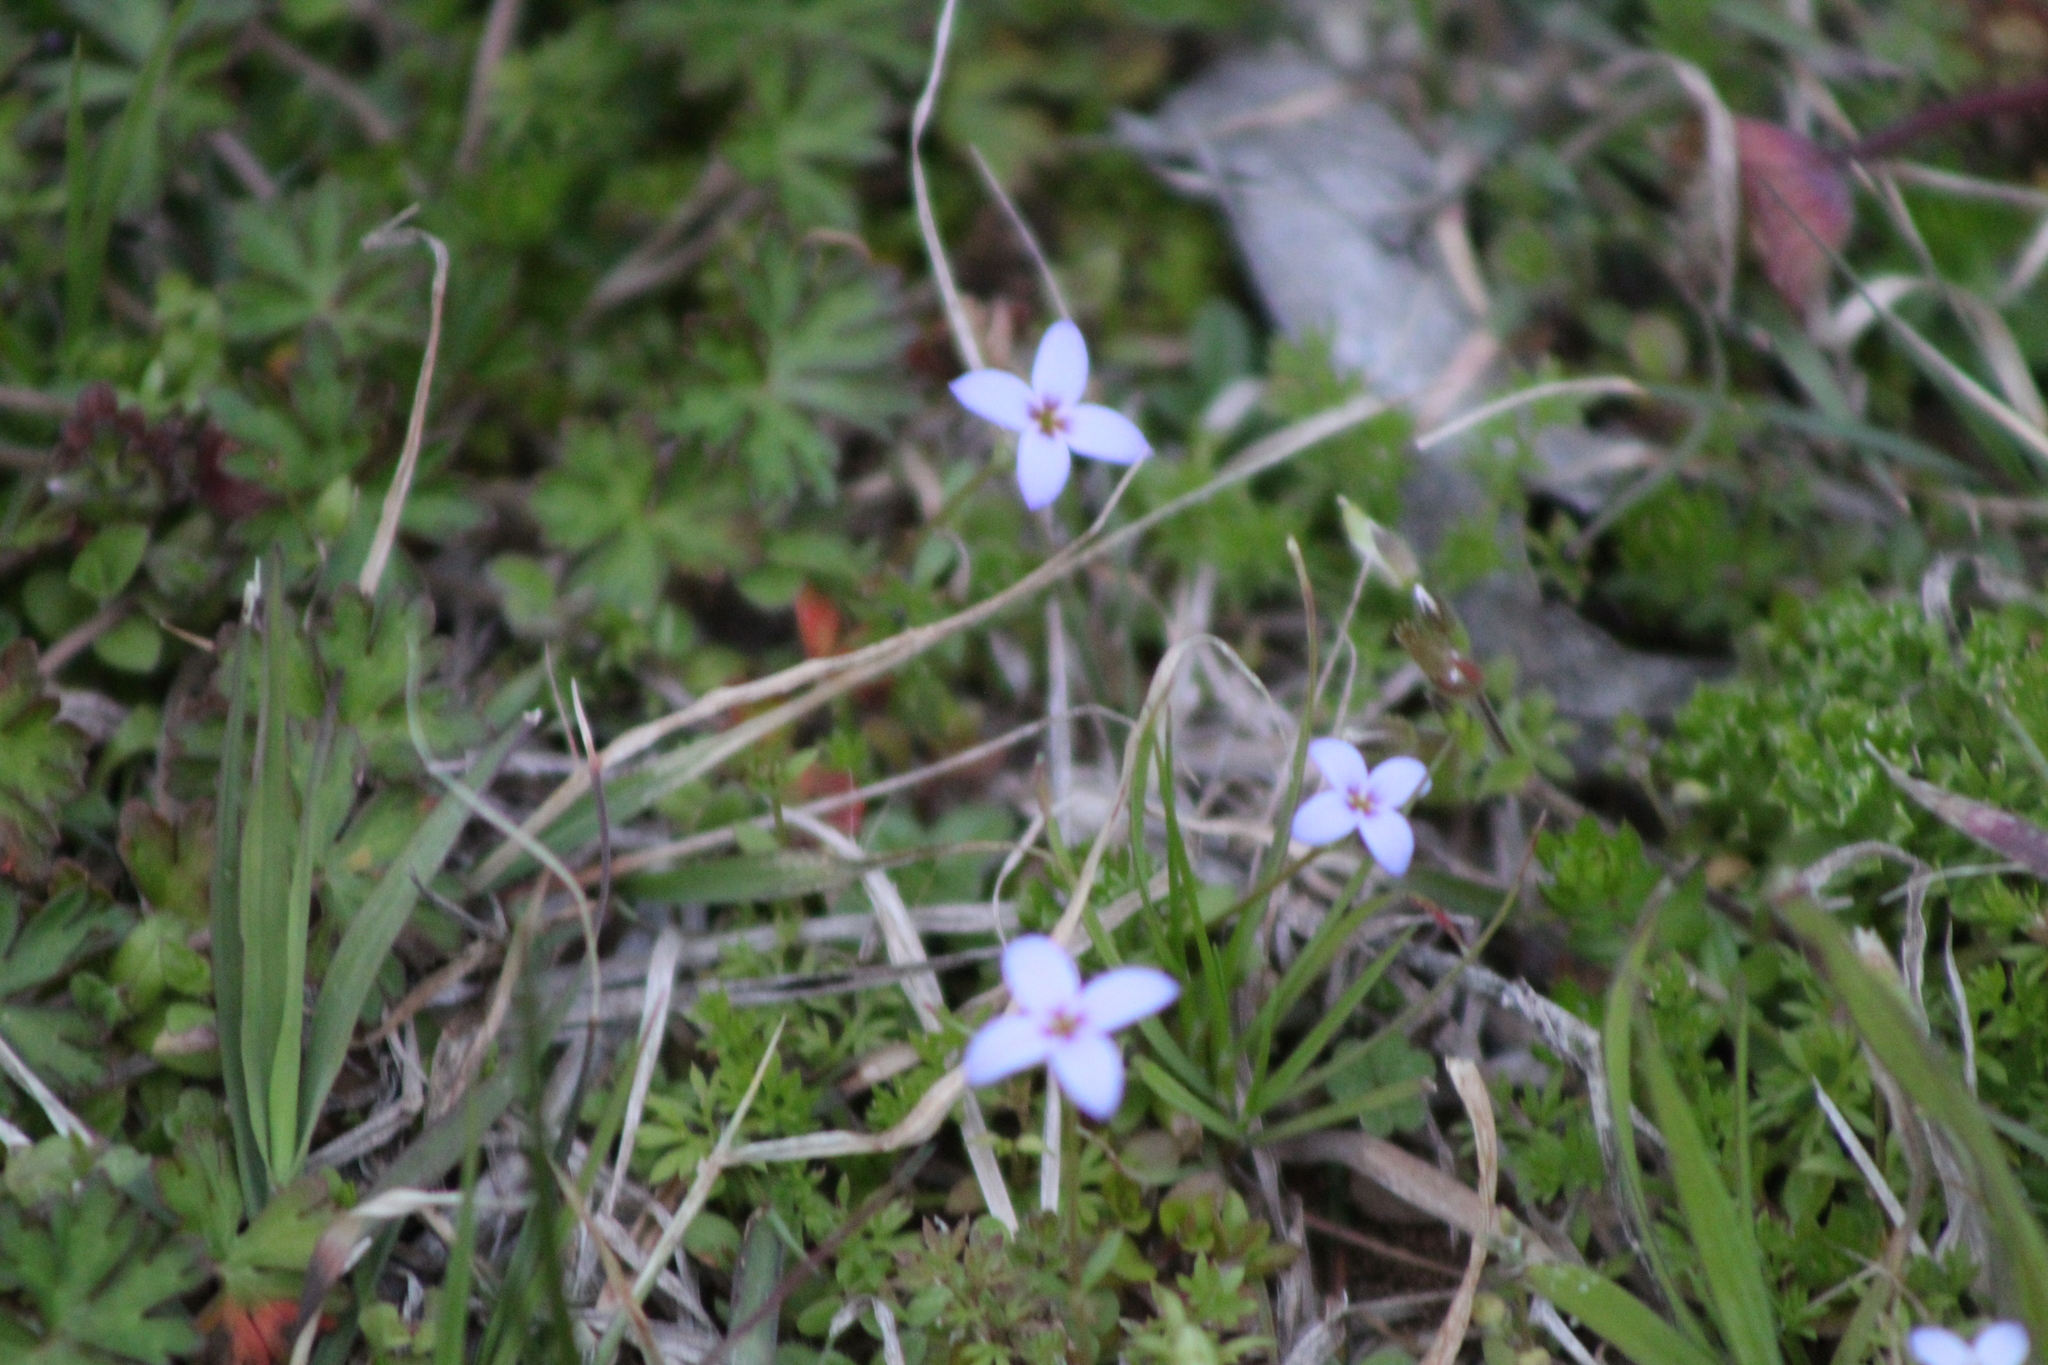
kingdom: Plantae
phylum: Tracheophyta
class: Magnoliopsida
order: Gentianales
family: Rubiaceae
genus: Houstonia
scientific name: Houstonia pusilla
